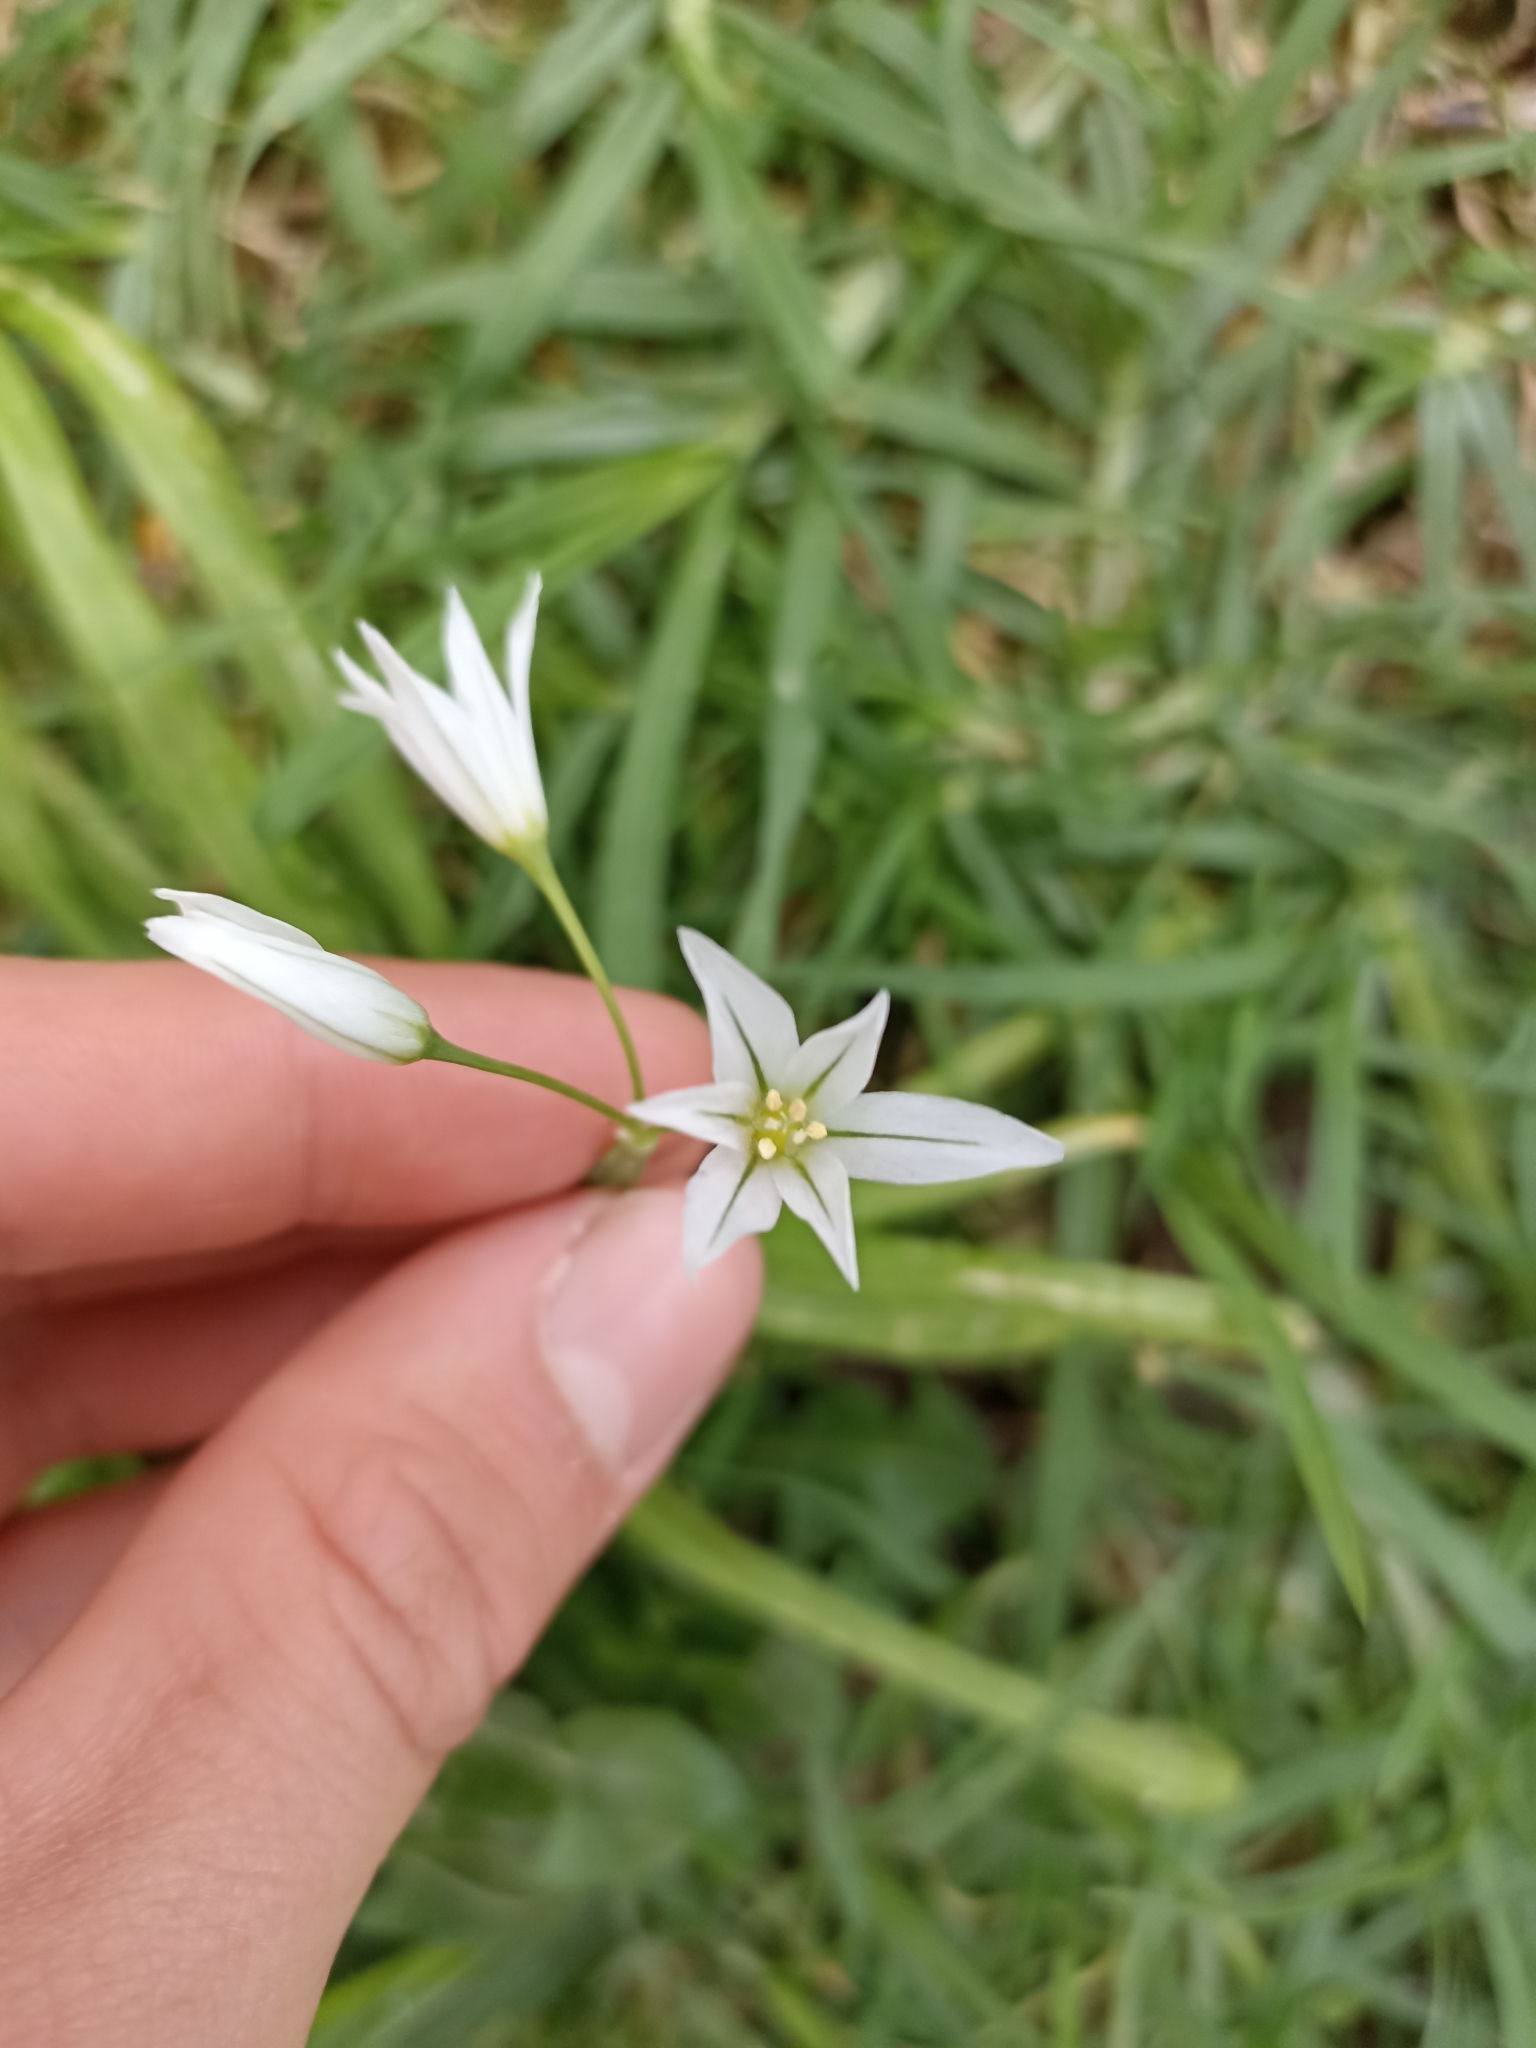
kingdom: Plantae
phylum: Tracheophyta
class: Liliopsida
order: Asparagales
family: Amaryllidaceae
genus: Allium
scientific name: Allium triquetrum
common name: Three-cornered garlic
